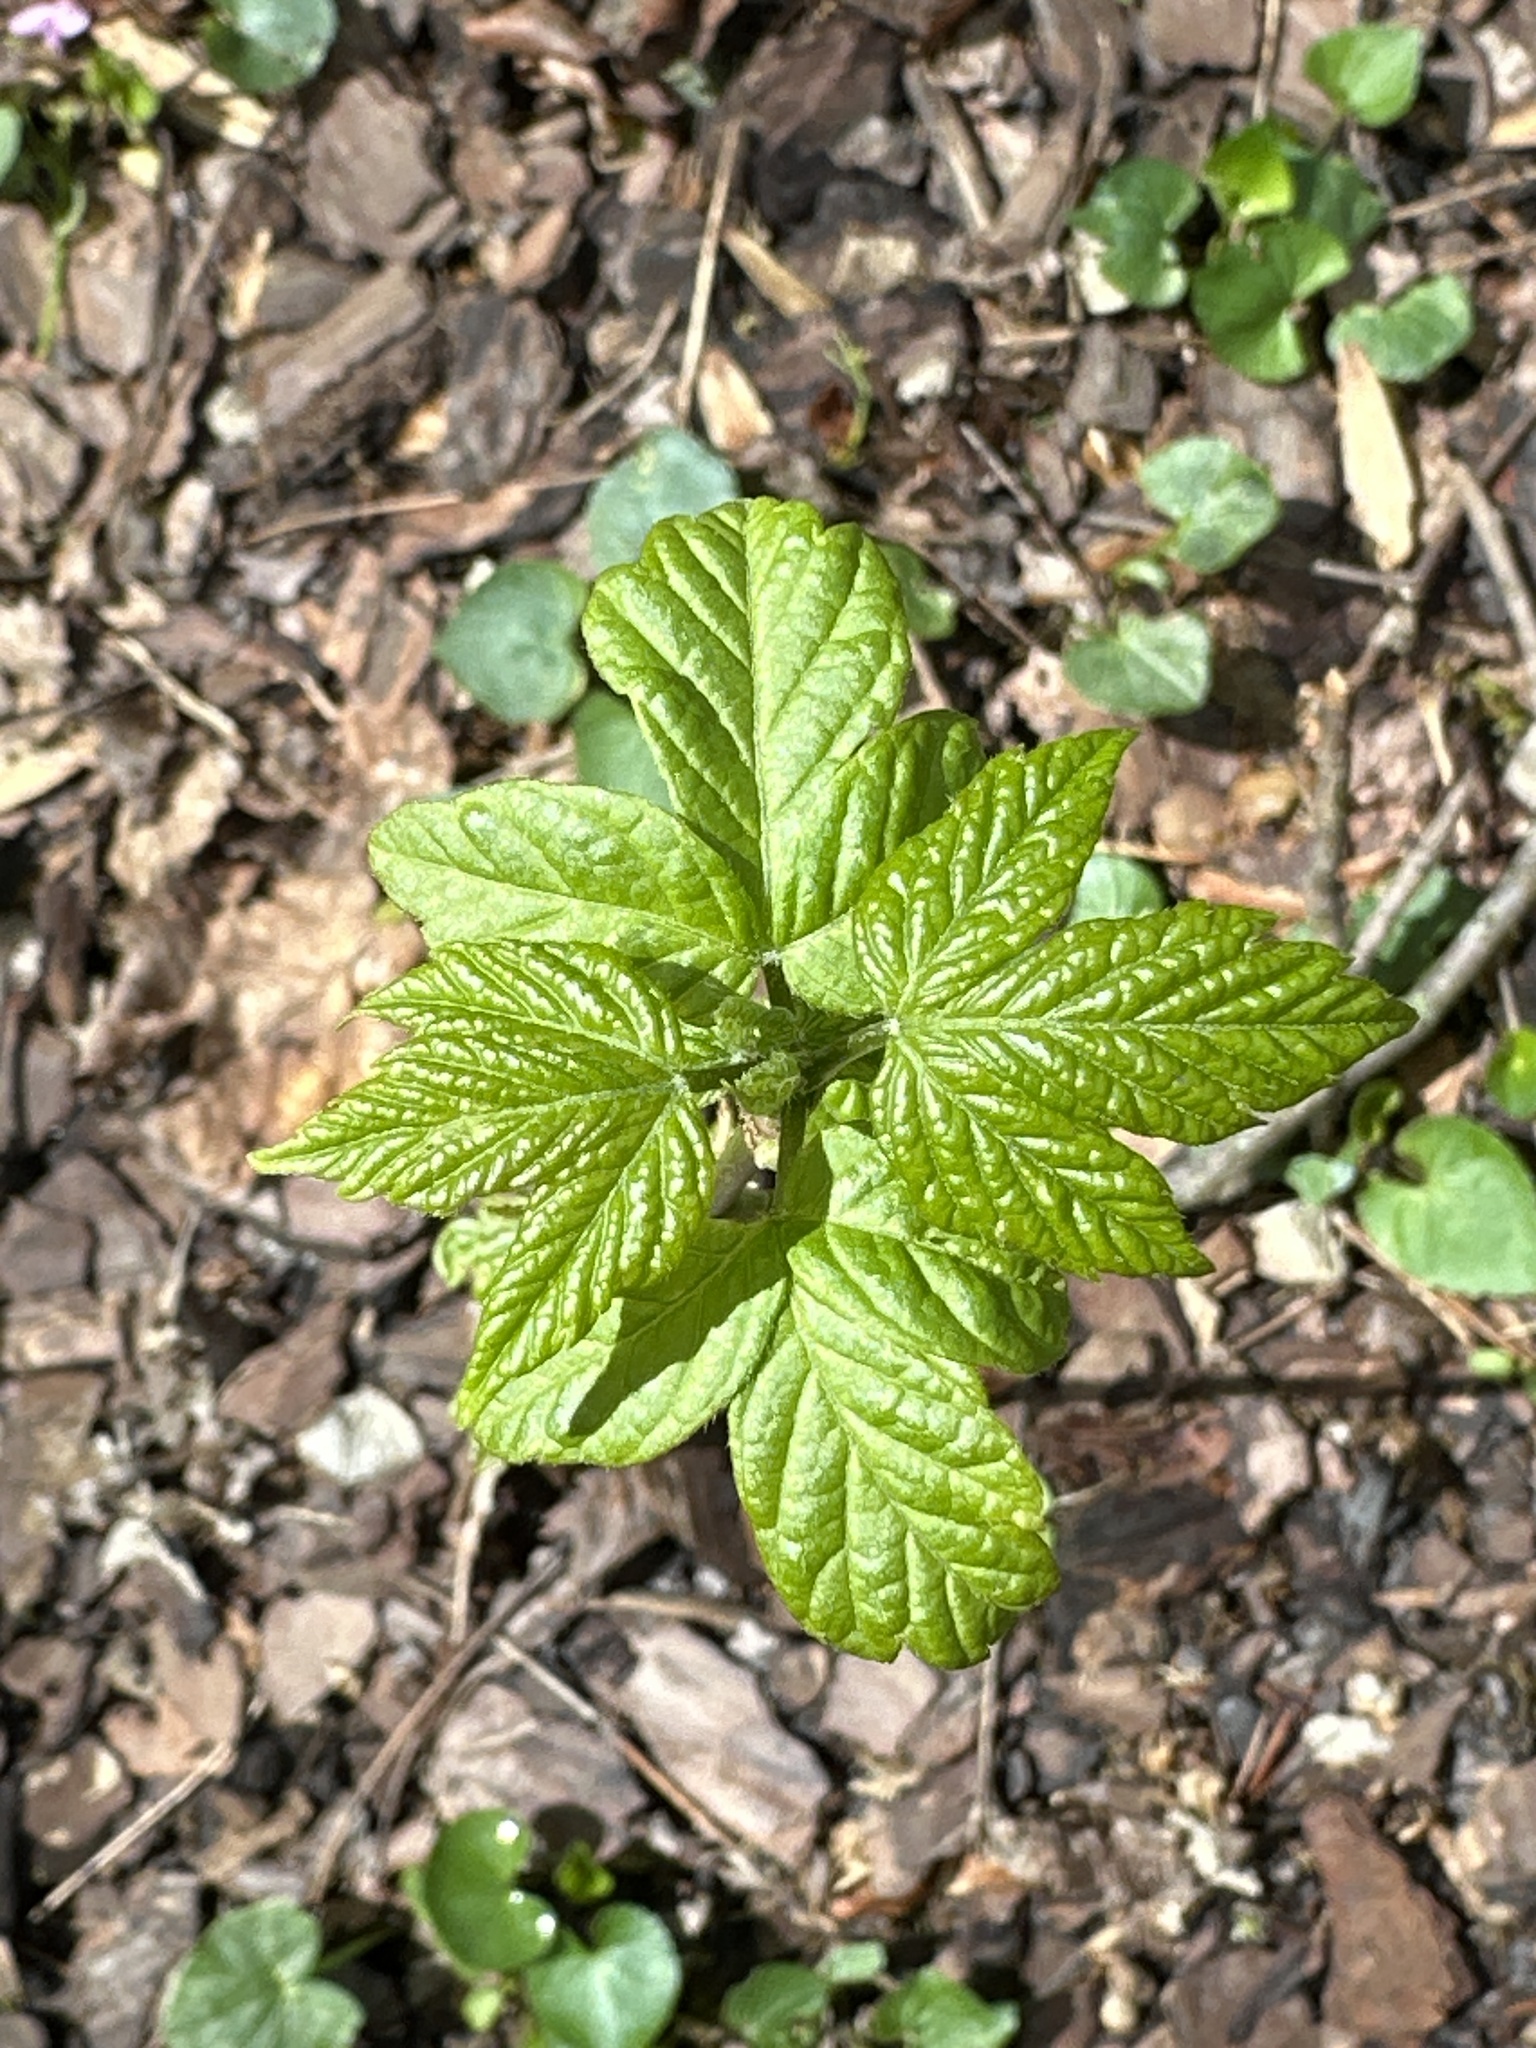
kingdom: Plantae
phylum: Tracheophyta
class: Magnoliopsida
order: Sapindales
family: Sapindaceae
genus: Acer
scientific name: Acer negundo
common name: Ashleaf maple
